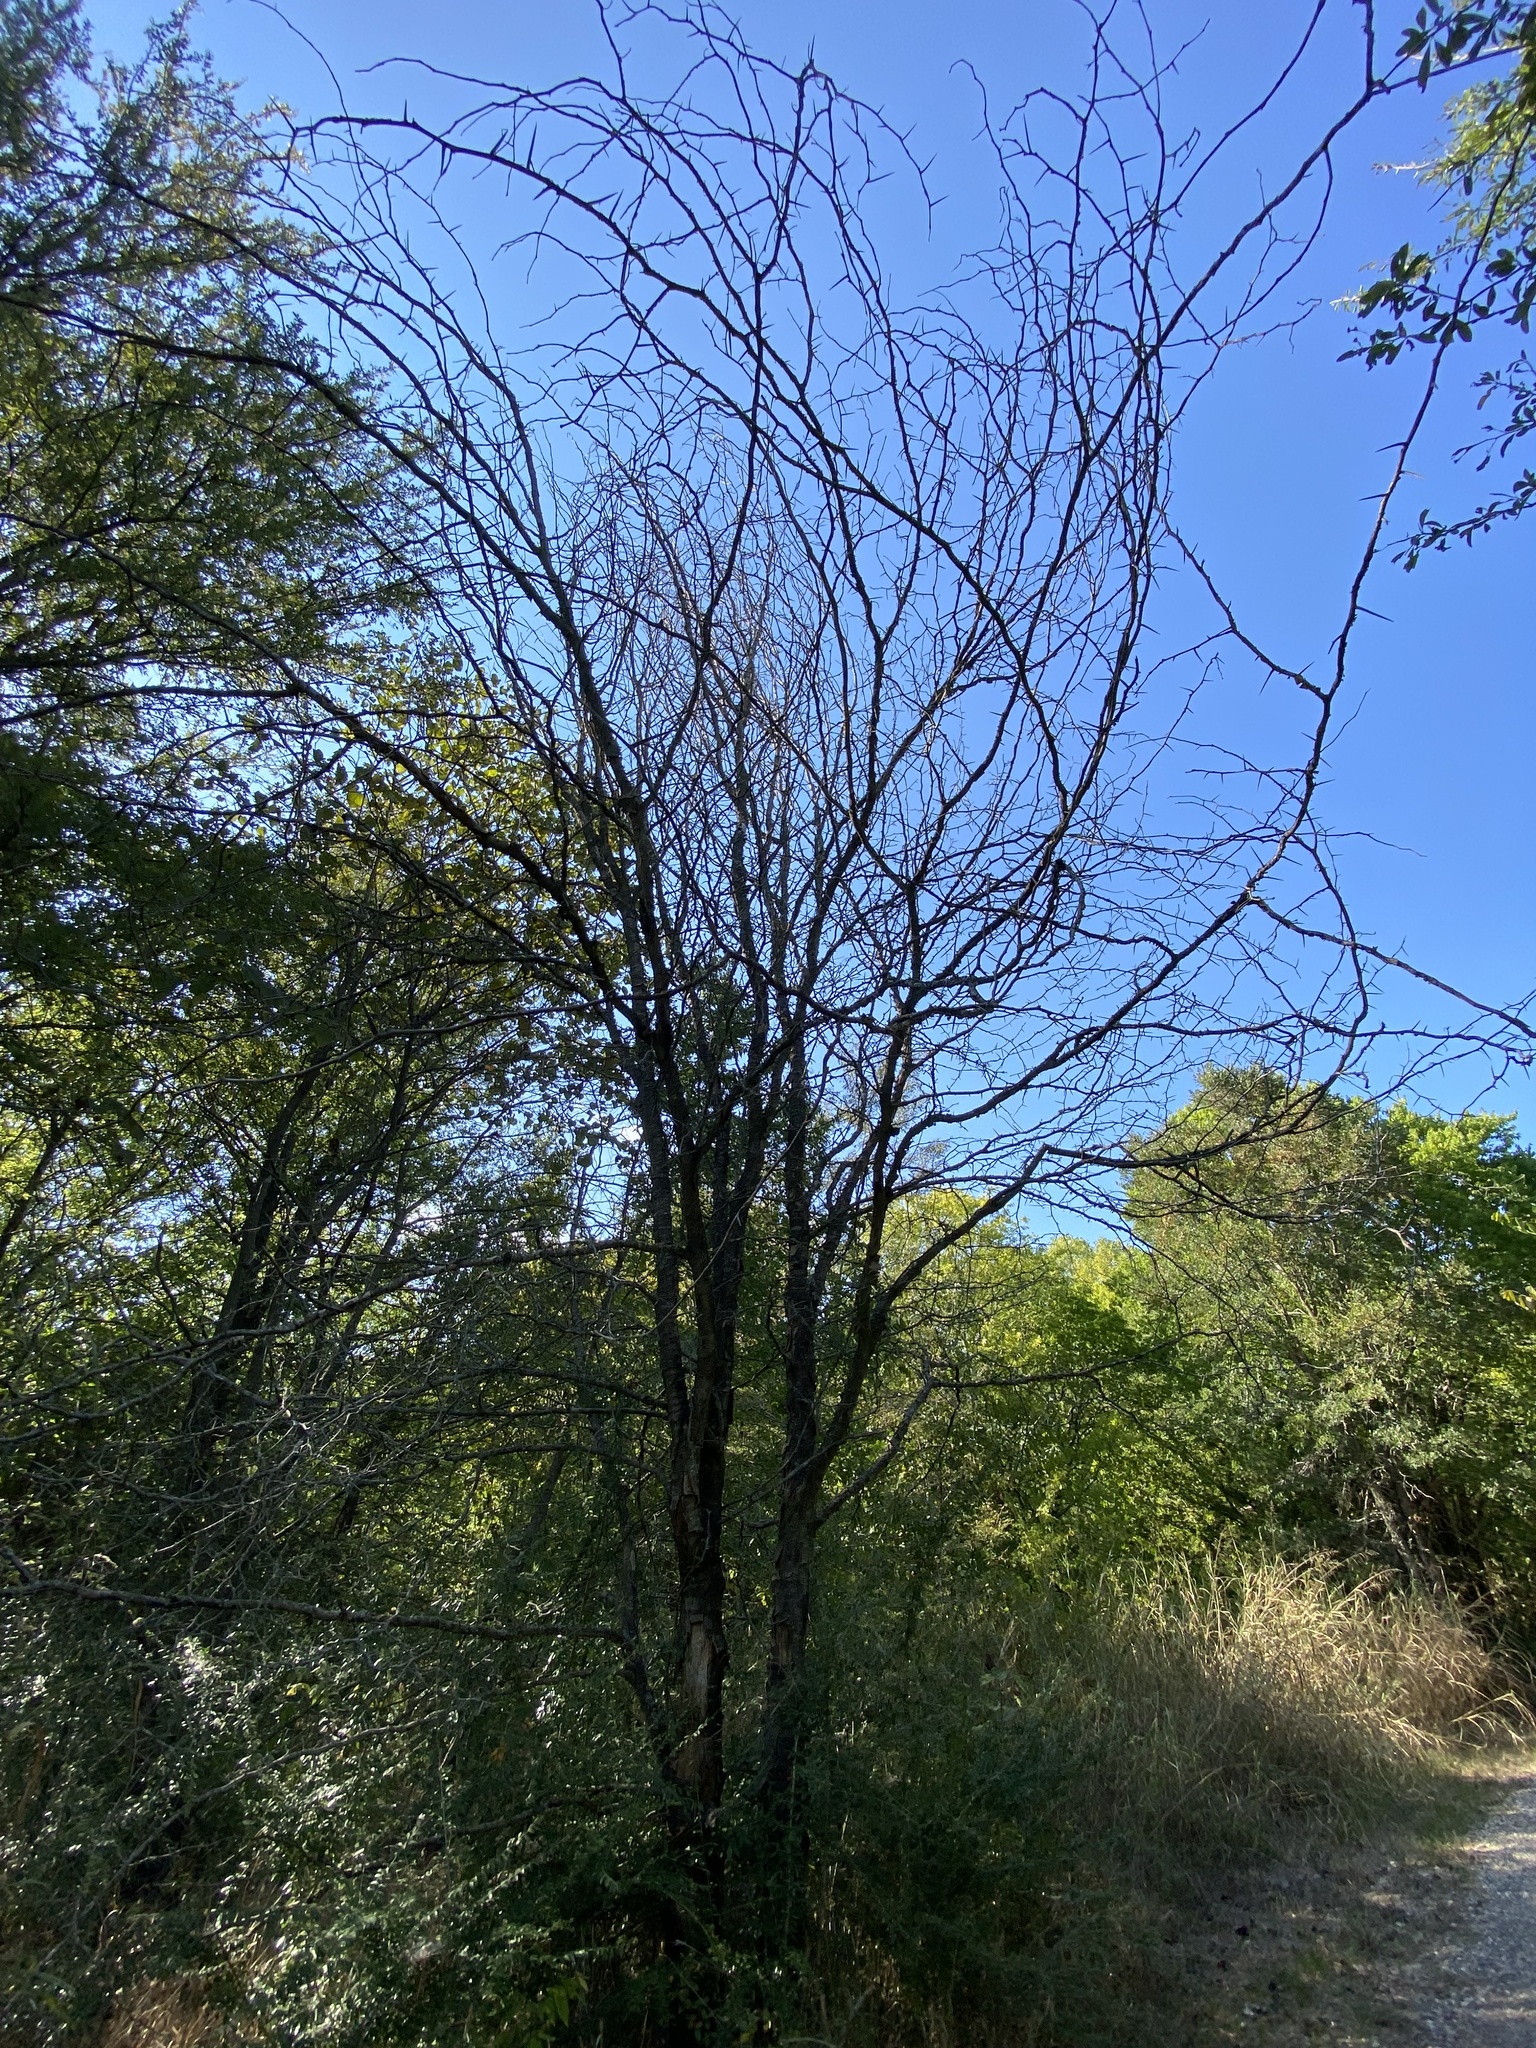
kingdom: Plantae
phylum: Tracheophyta
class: Magnoliopsida
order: Fabales
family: Fabaceae
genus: Gleditsia
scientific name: Gleditsia triacanthos
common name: Common honeylocust
